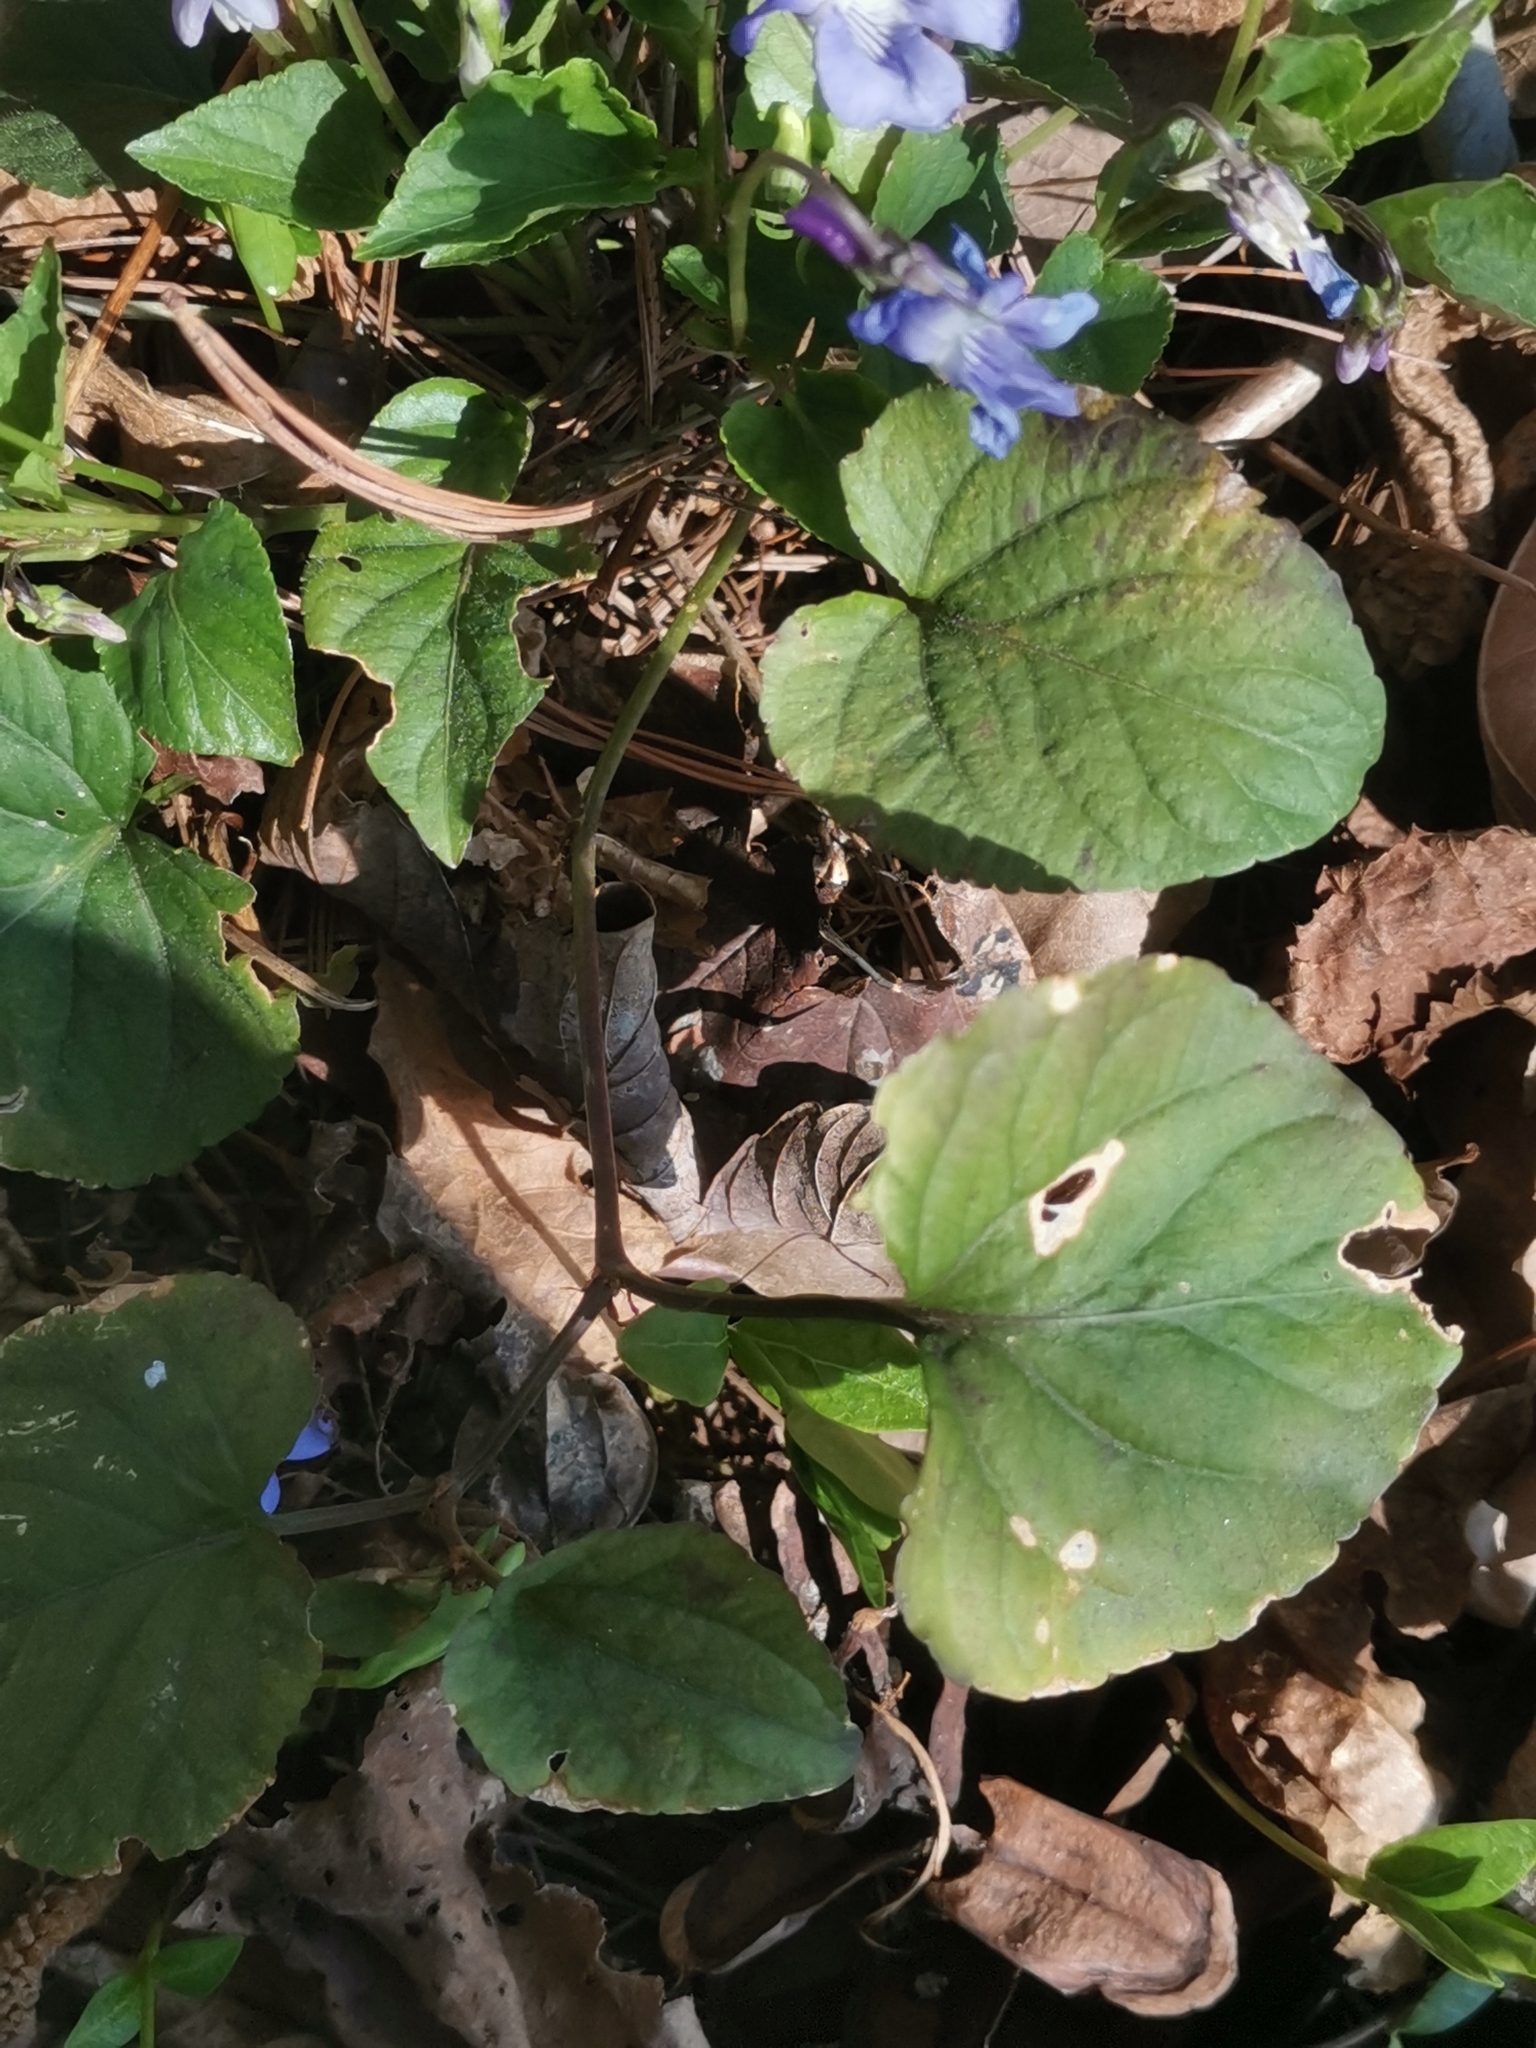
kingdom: Plantae
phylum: Tracheophyta
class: Magnoliopsida
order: Malpighiales
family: Violaceae
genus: Viola
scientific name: Viola riviniana
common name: Common dog-violet
